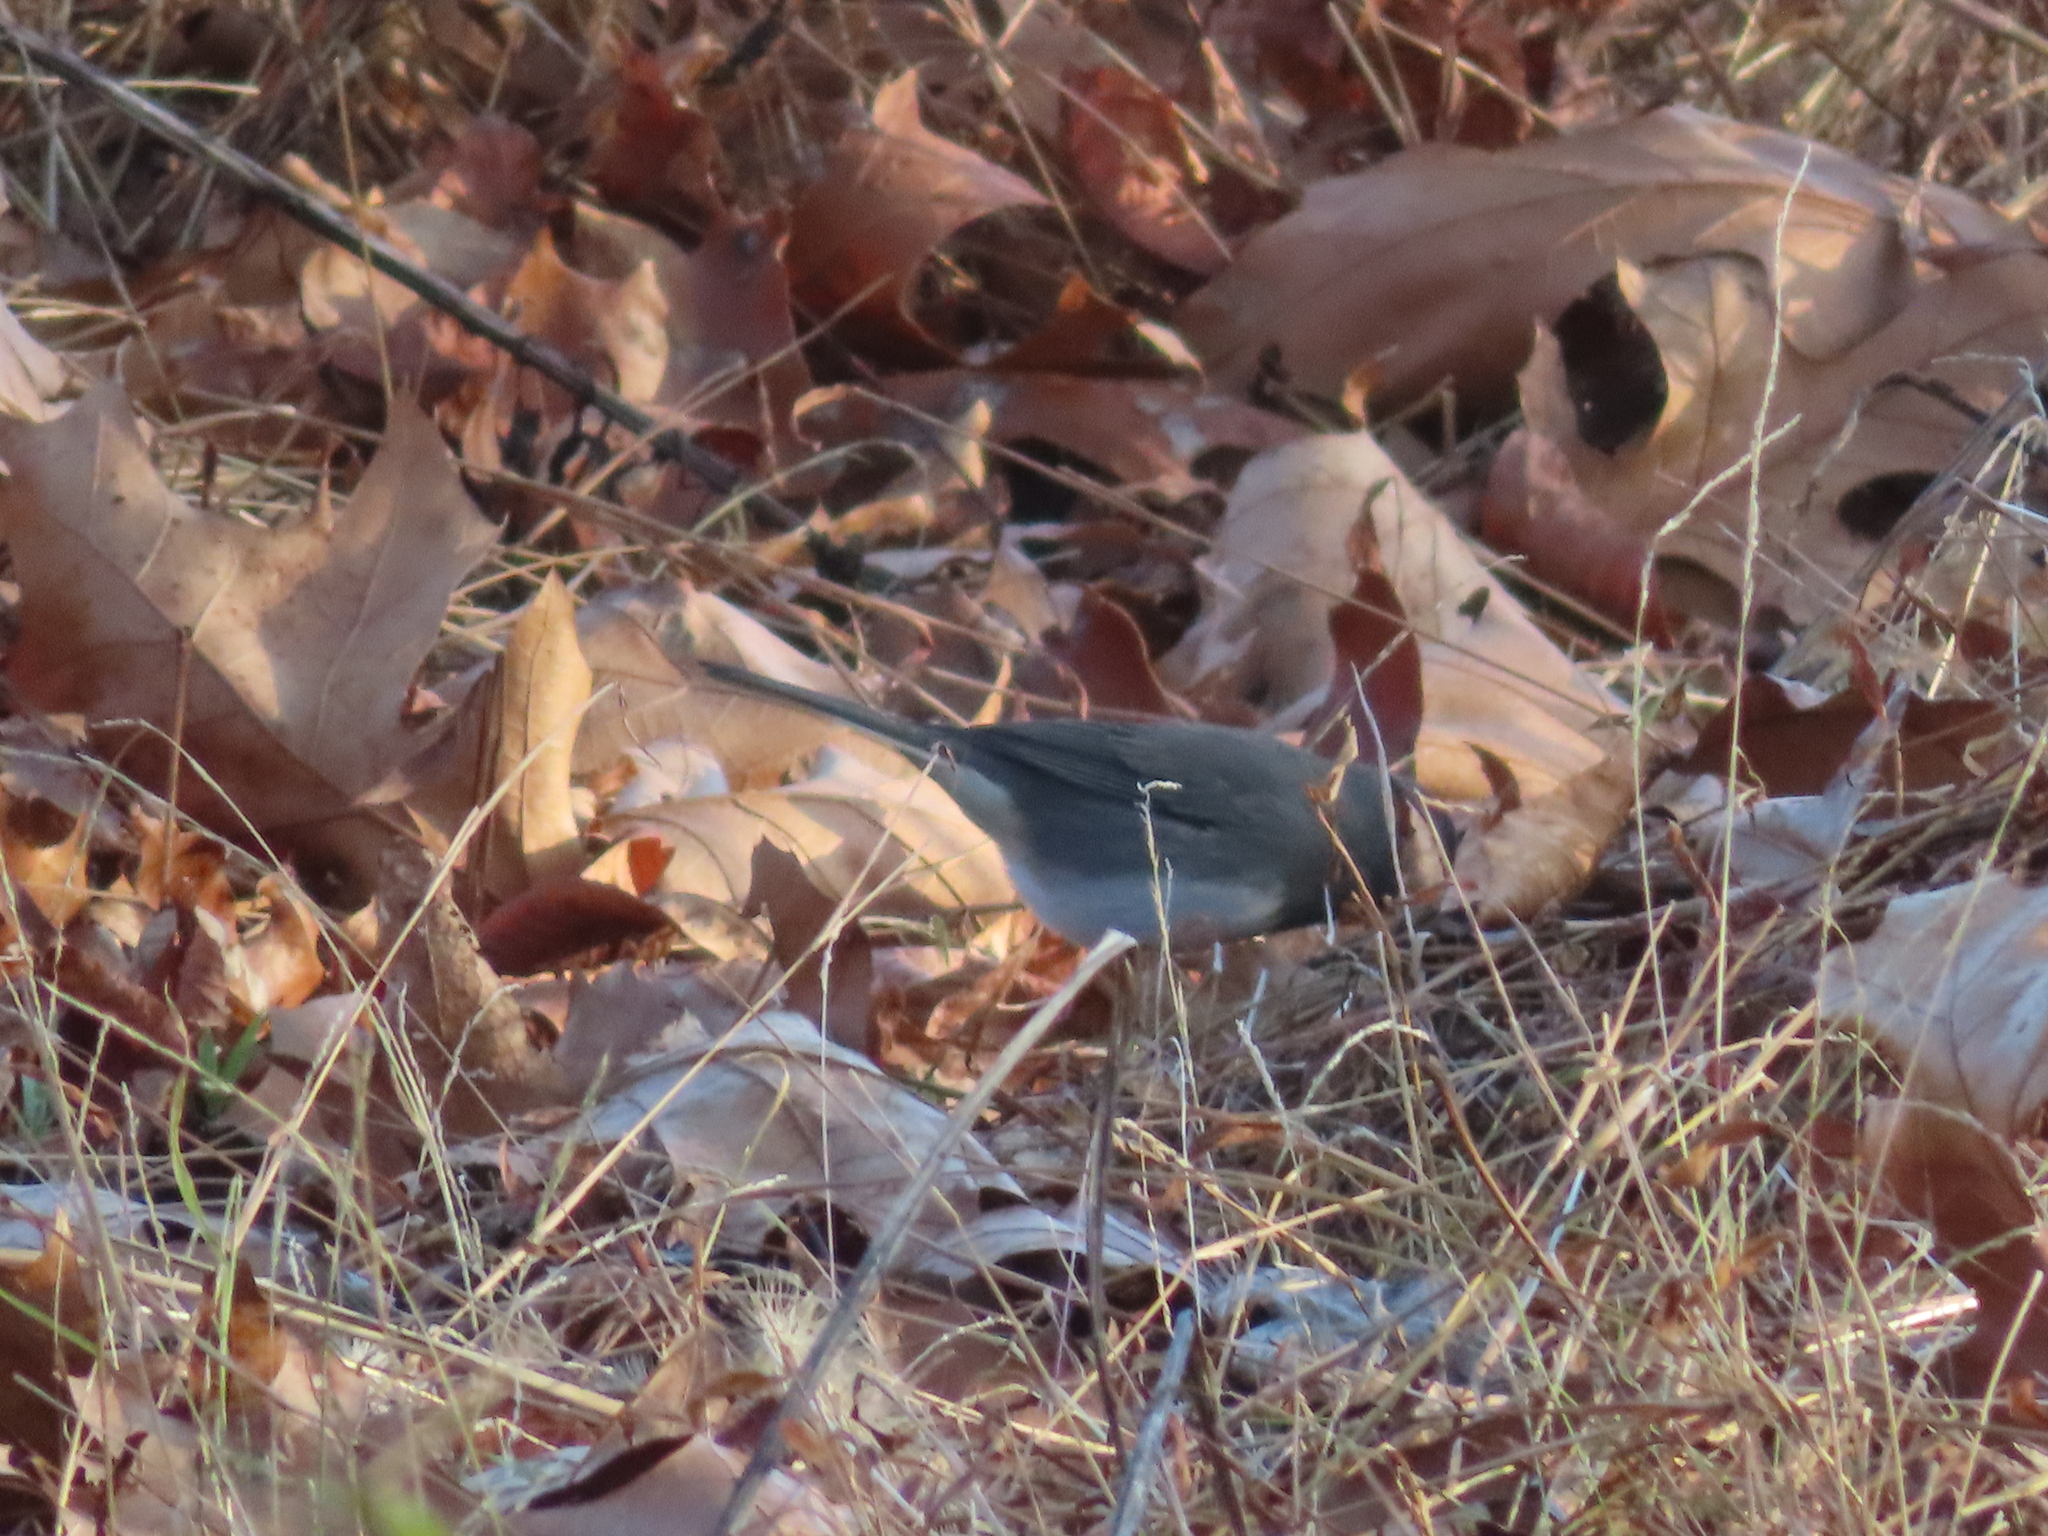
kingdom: Animalia
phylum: Chordata
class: Aves
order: Passeriformes
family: Passerellidae
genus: Junco
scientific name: Junco hyemalis
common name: Dark-eyed junco
